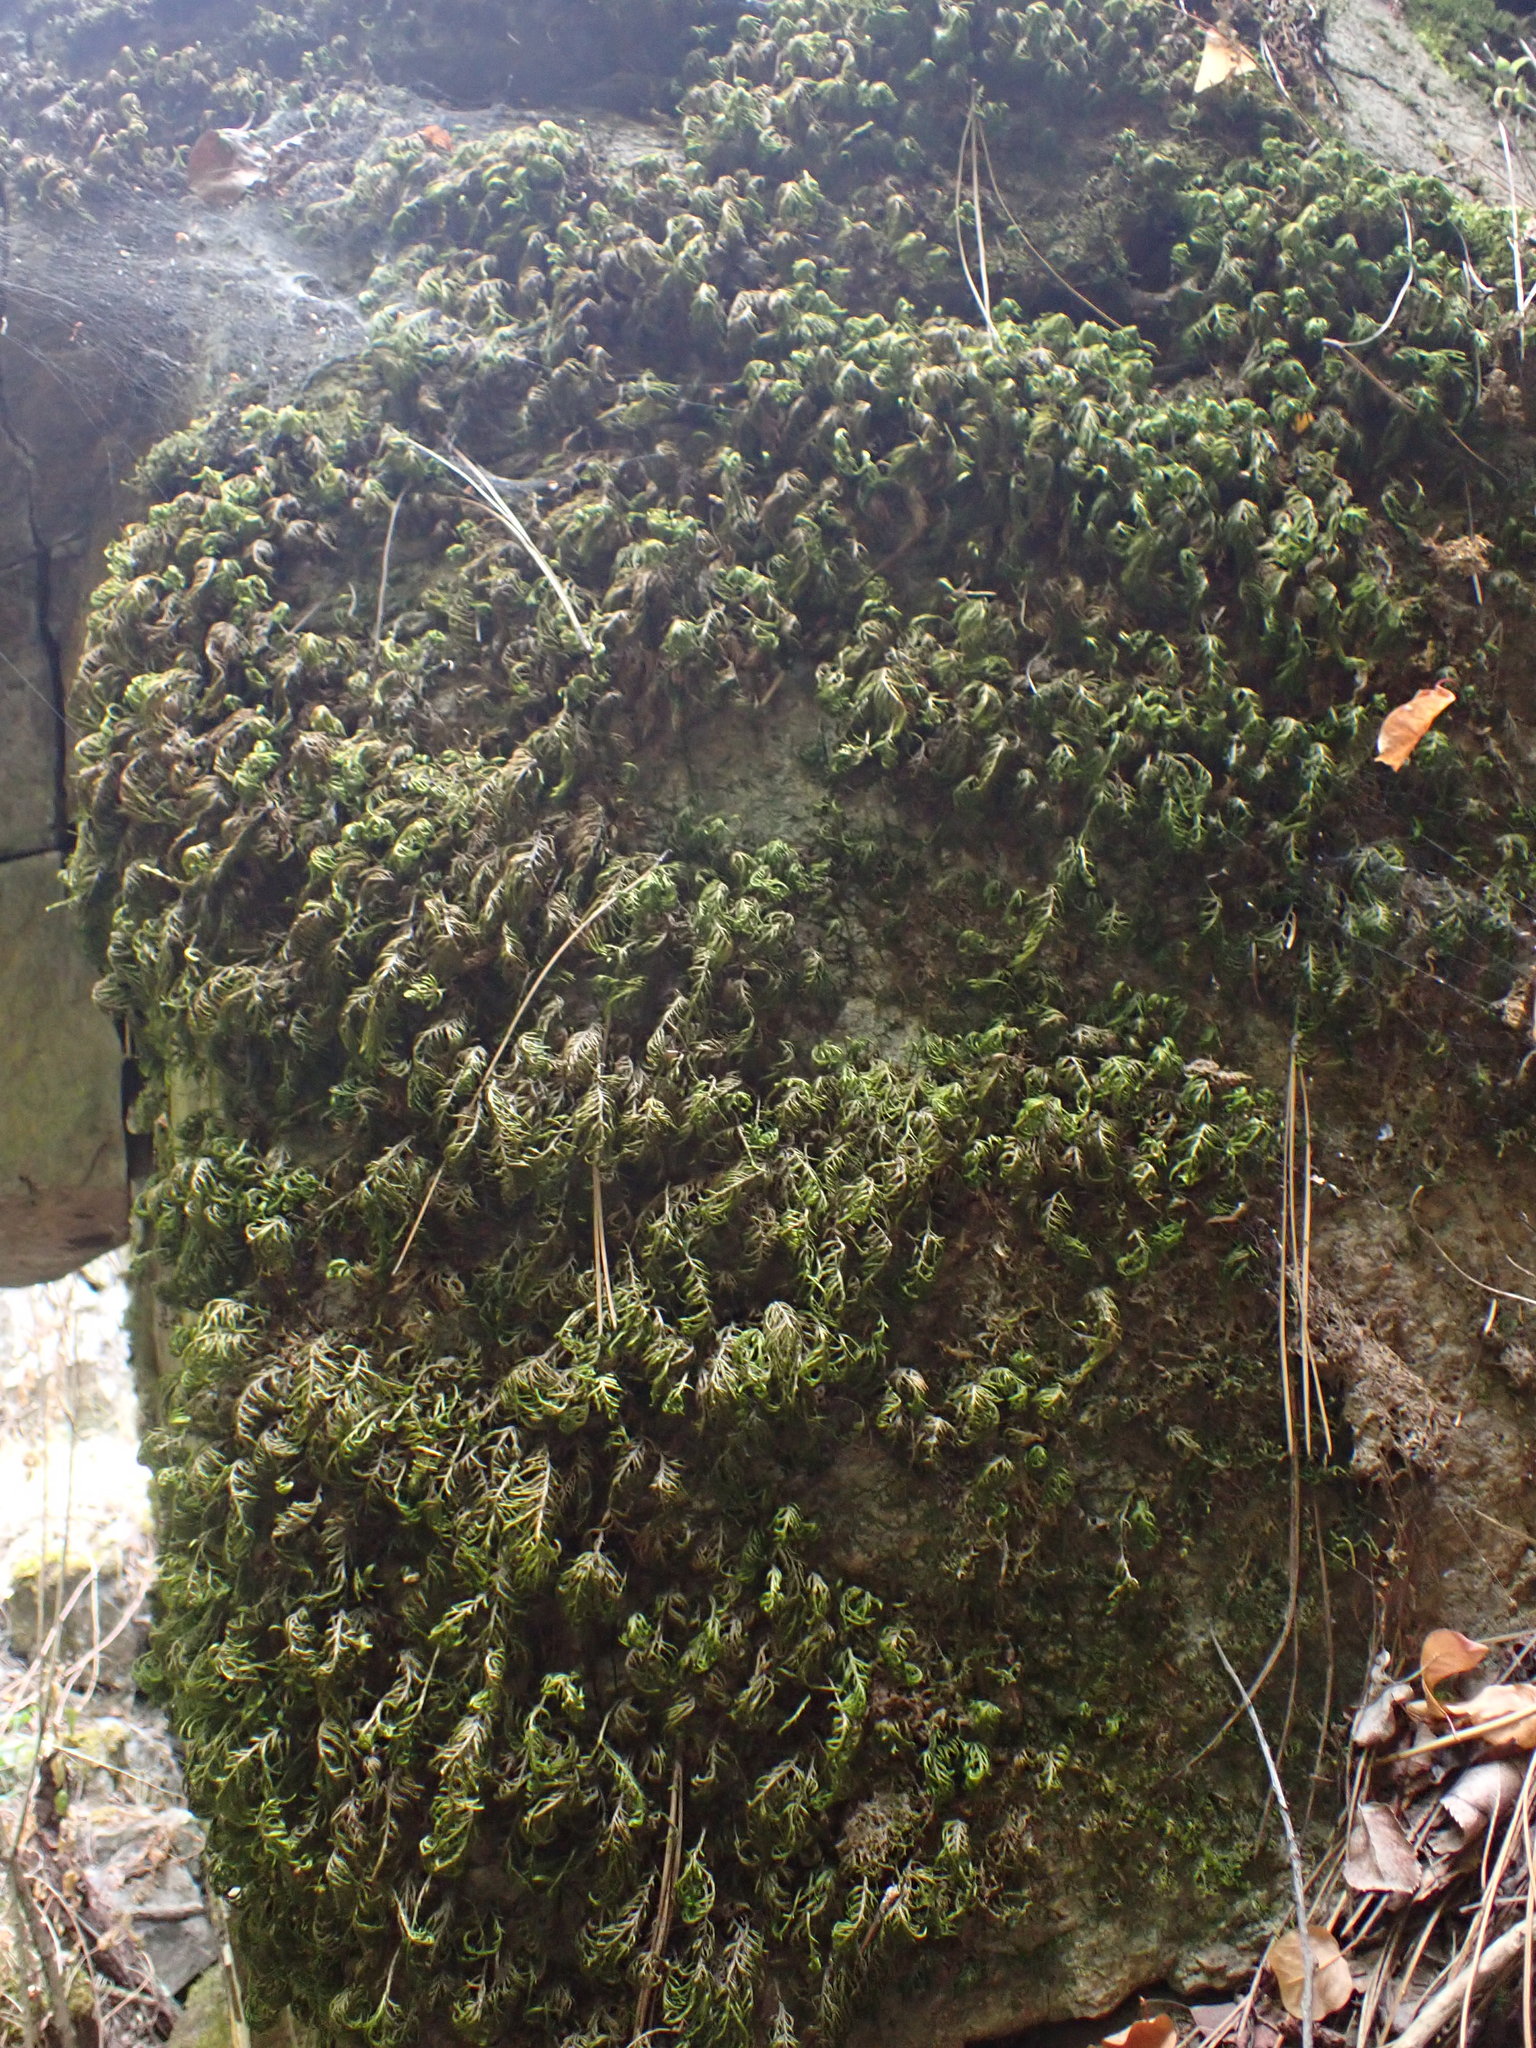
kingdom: Plantae
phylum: Bryophyta
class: Bryopsida
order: Hypnales
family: Cryphaeaceae
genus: Dendroalsia
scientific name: Dendroalsia abietina
